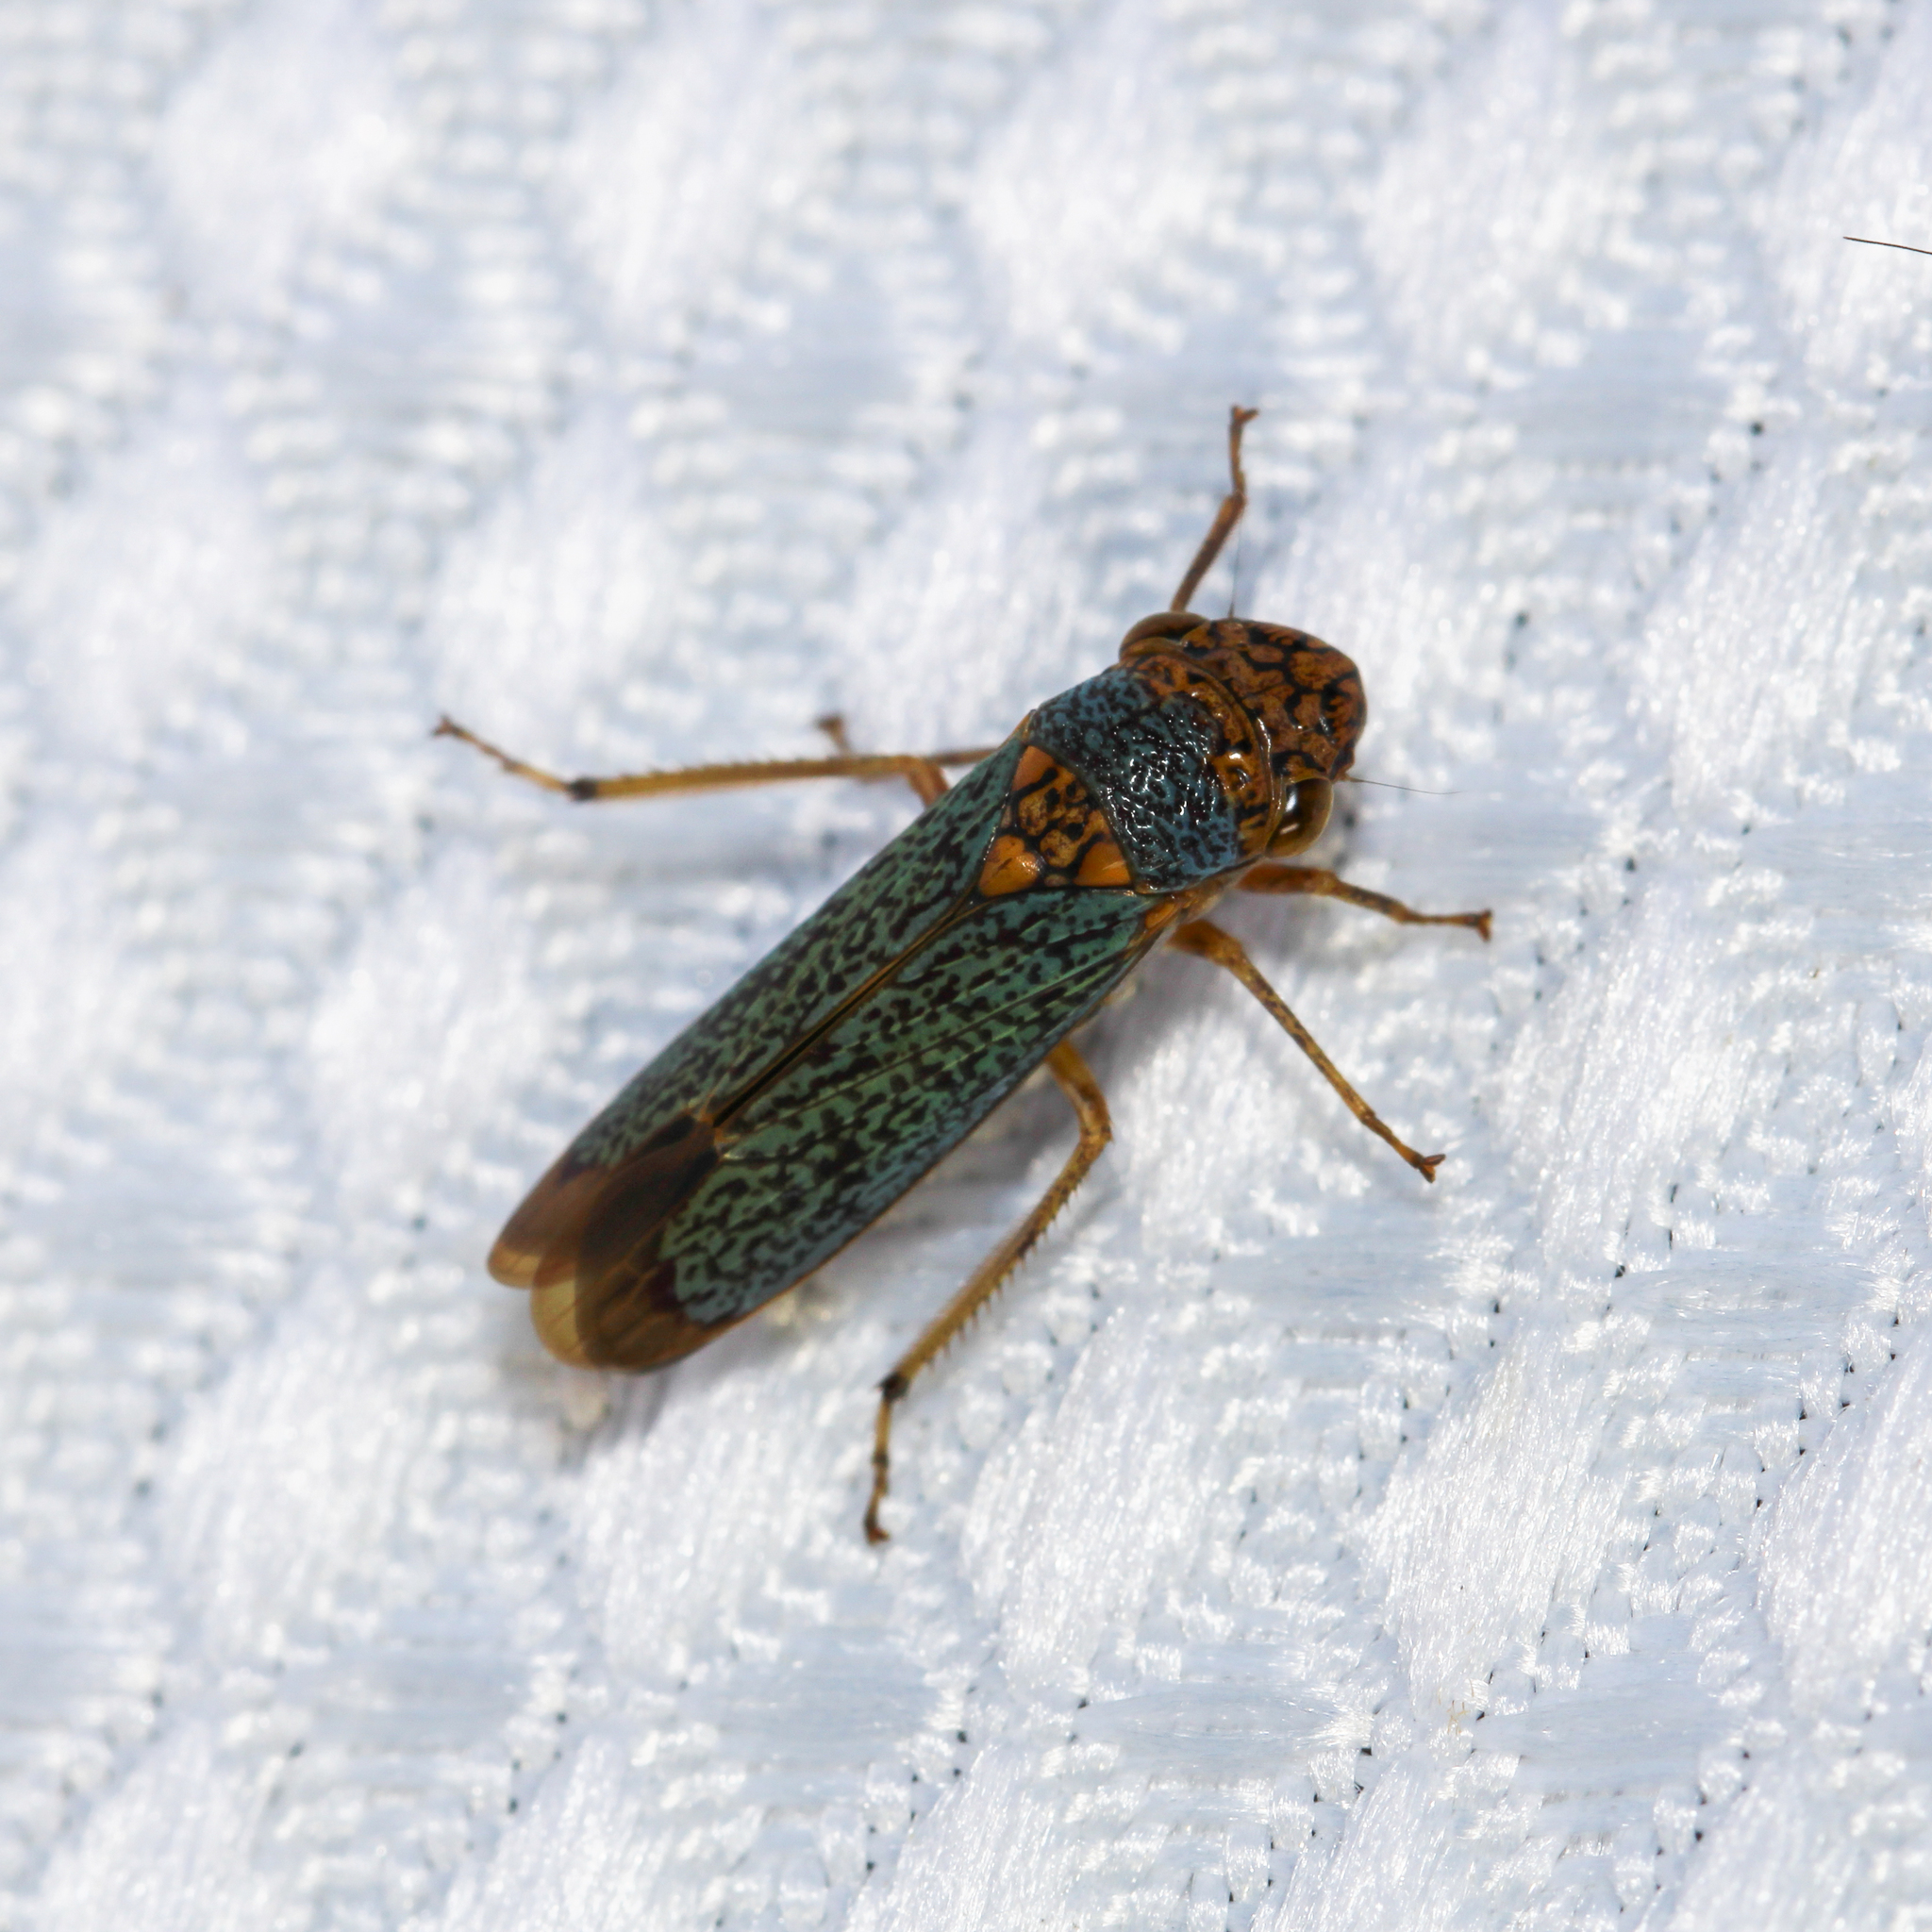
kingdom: Animalia
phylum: Arthropoda
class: Insecta
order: Hemiptera
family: Cicadellidae
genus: Oncometopia
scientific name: Oncometopia orbona
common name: Broad-headed sharpshooter
